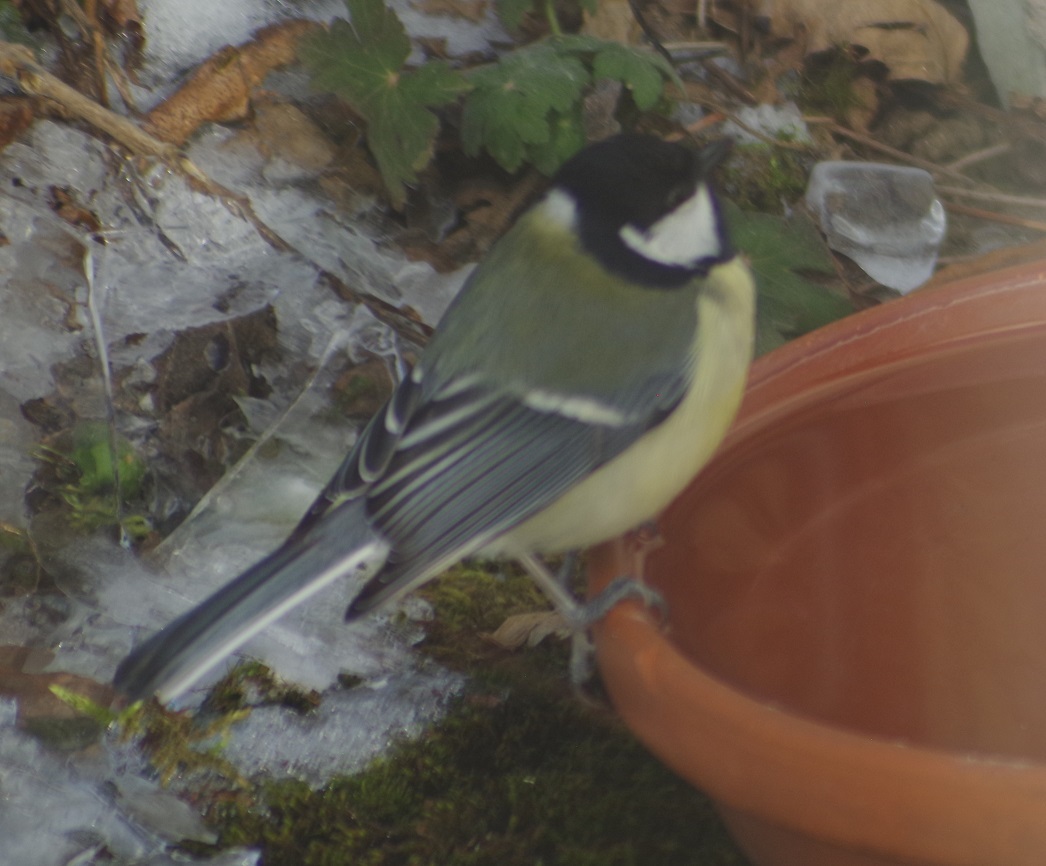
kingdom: Animalia
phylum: Chordata
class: Aves
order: Passeriformes
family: Paridae
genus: Parus
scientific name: Parus major
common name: Great tit
